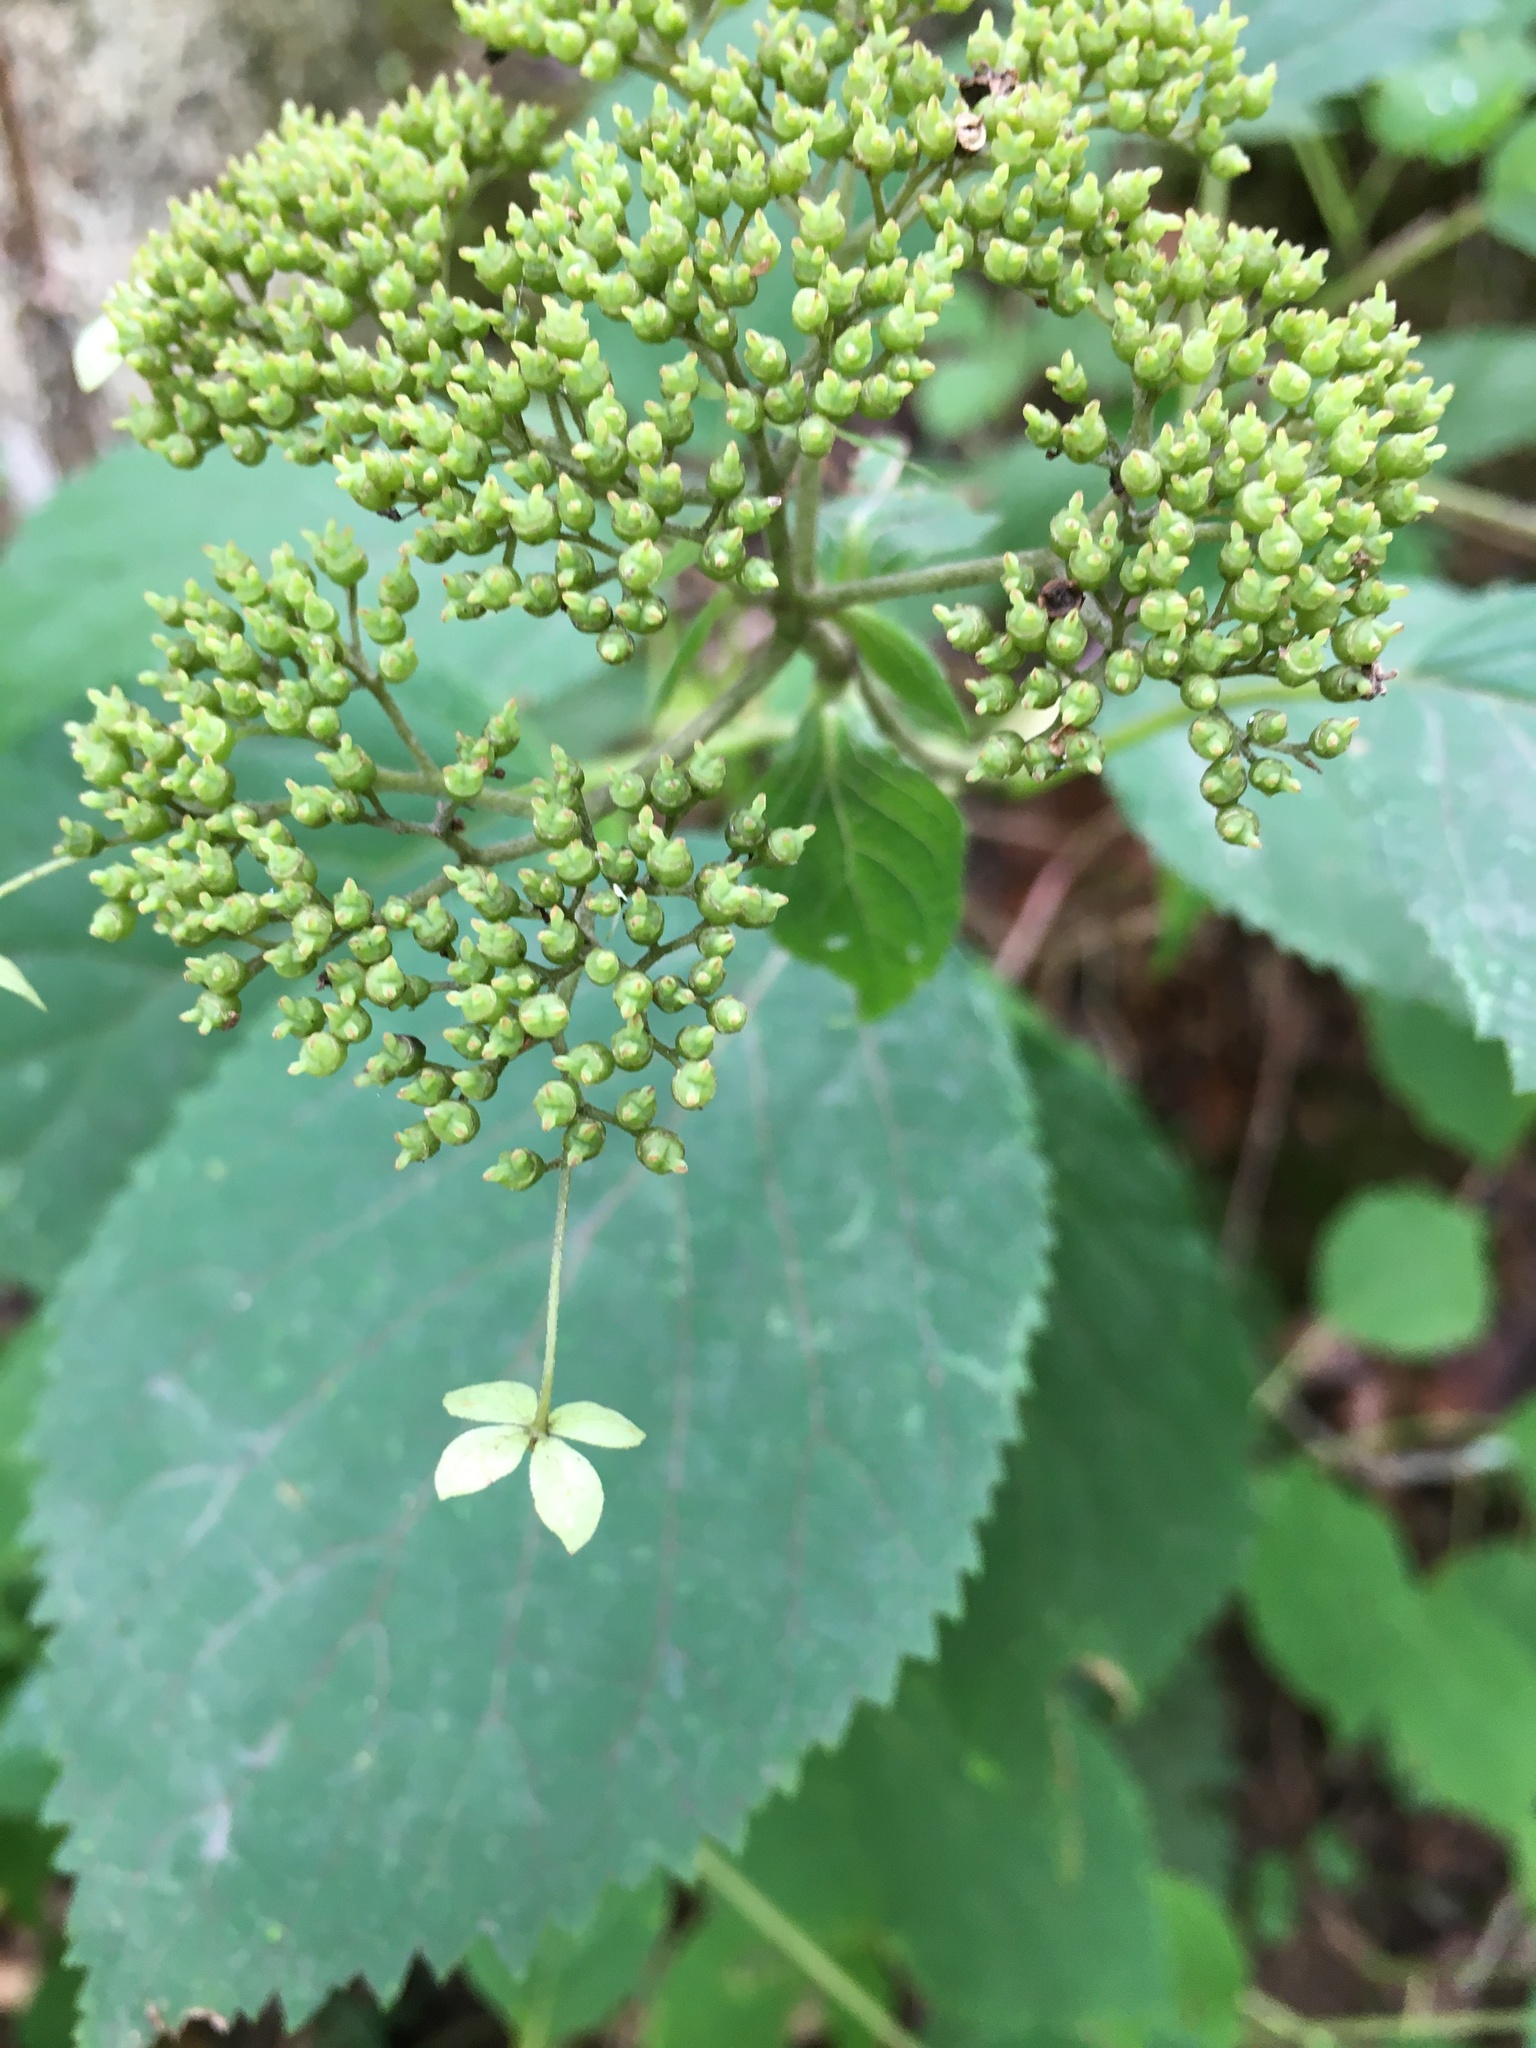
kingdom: Plantae
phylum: Tracheophyta
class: Magnoliopsida
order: Cornales
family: Hydrangeaceae
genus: Hydrangea
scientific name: Hydrangea arborescens
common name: Sevenbark
